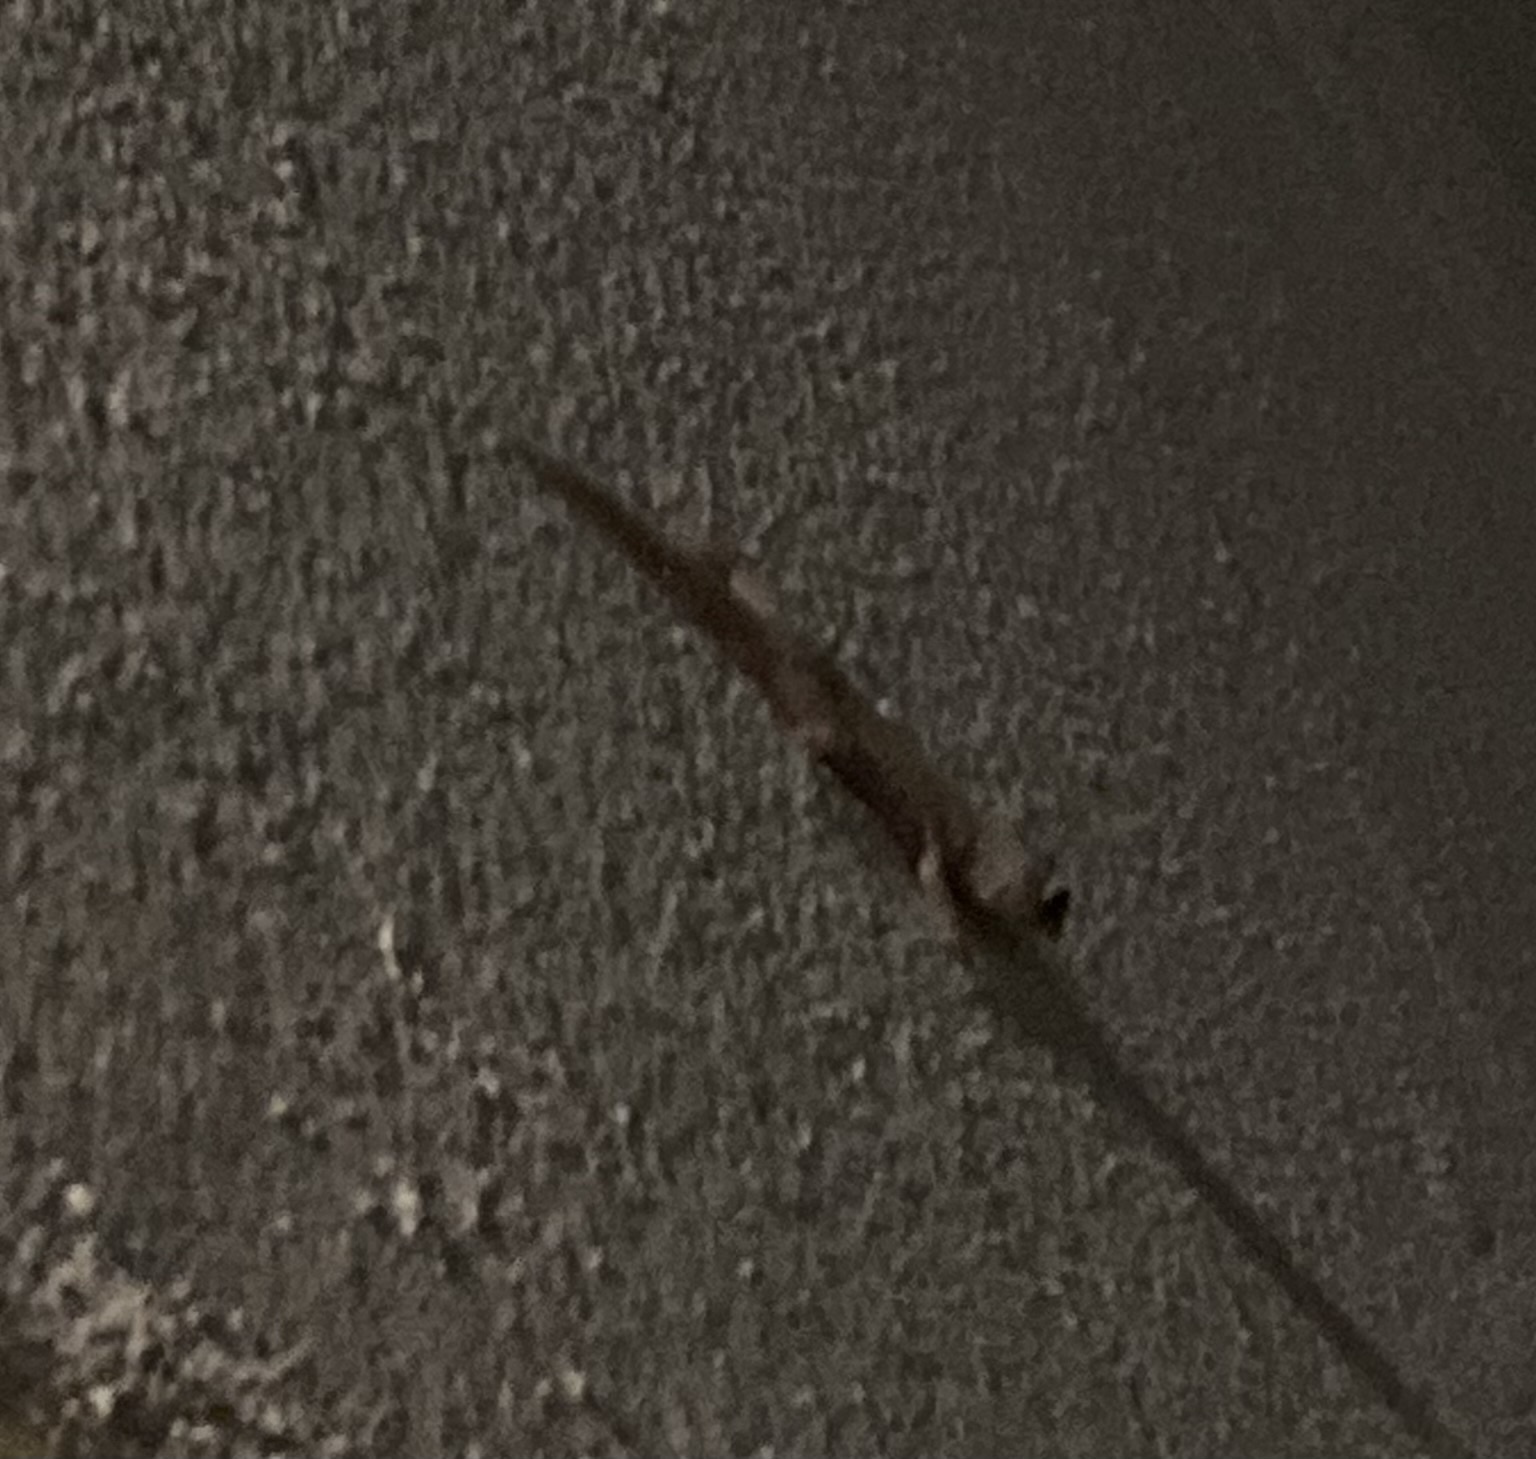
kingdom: Animalia
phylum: Chordata
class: Squamata
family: Gekkonidae
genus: Hemidactylus
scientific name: Hemidactylus mabouia
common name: House gecko
